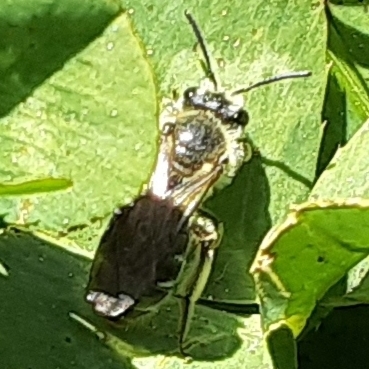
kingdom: Animalia
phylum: Arthropoda
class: Insecta
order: Hymenoptera
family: Andrenidae
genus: Andrena
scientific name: Andrena
